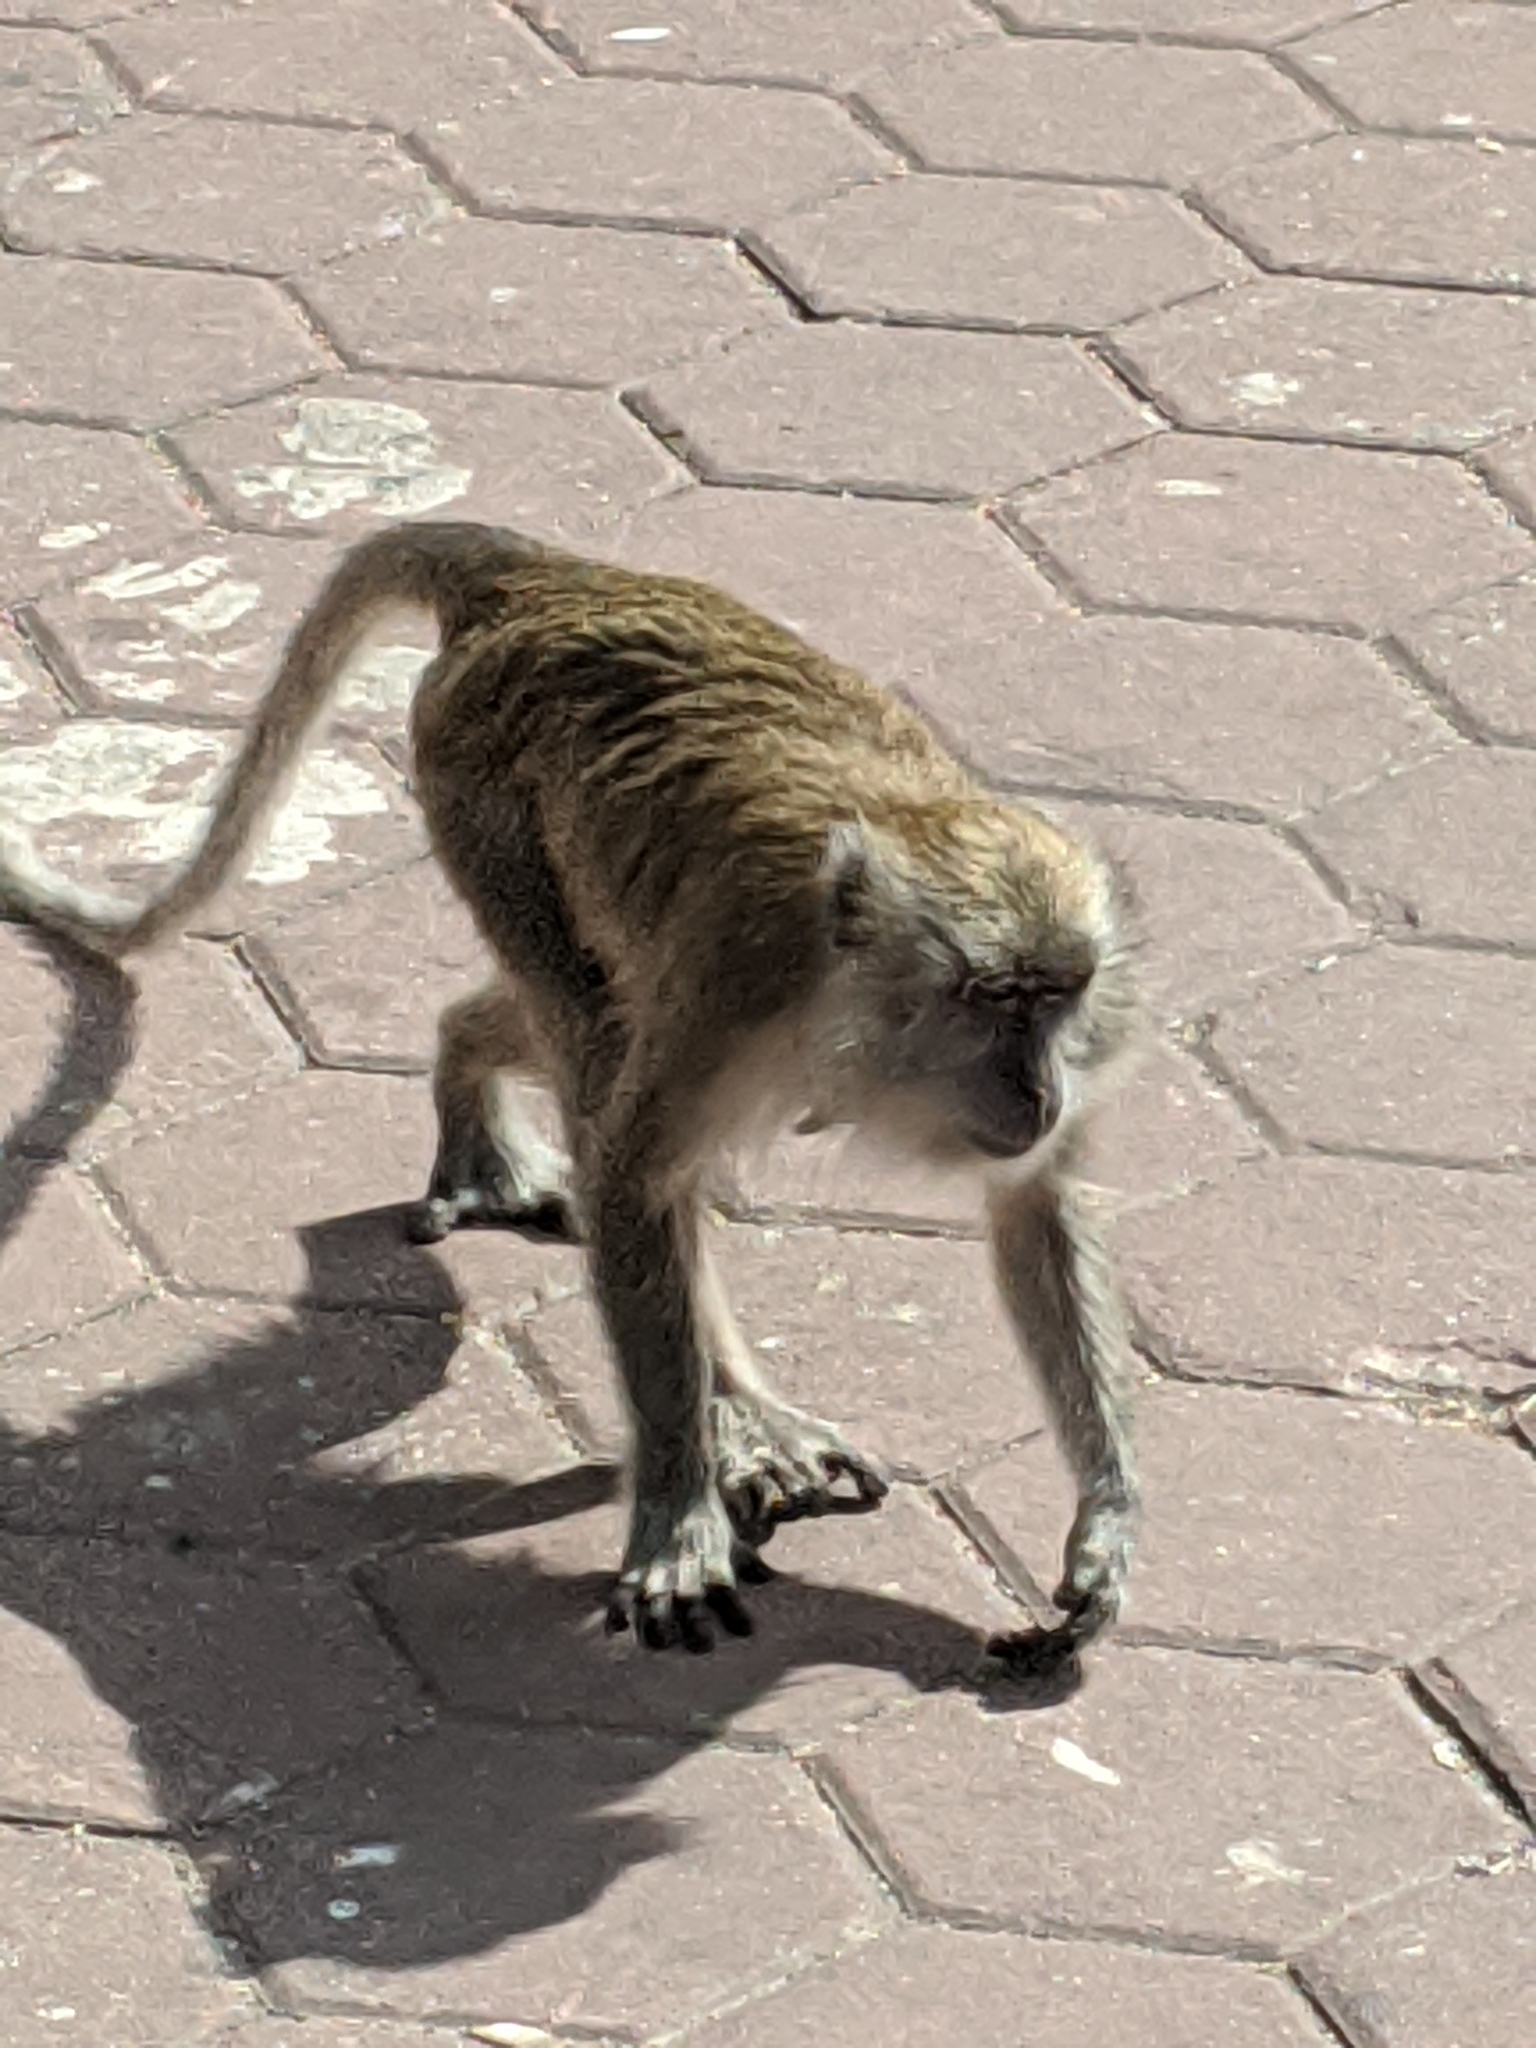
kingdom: Animalia
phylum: Chordata
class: Mammalia
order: Primates
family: Cercopithecidae
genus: Macaca
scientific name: Macaca fascicularis
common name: Crab-eating macaque
